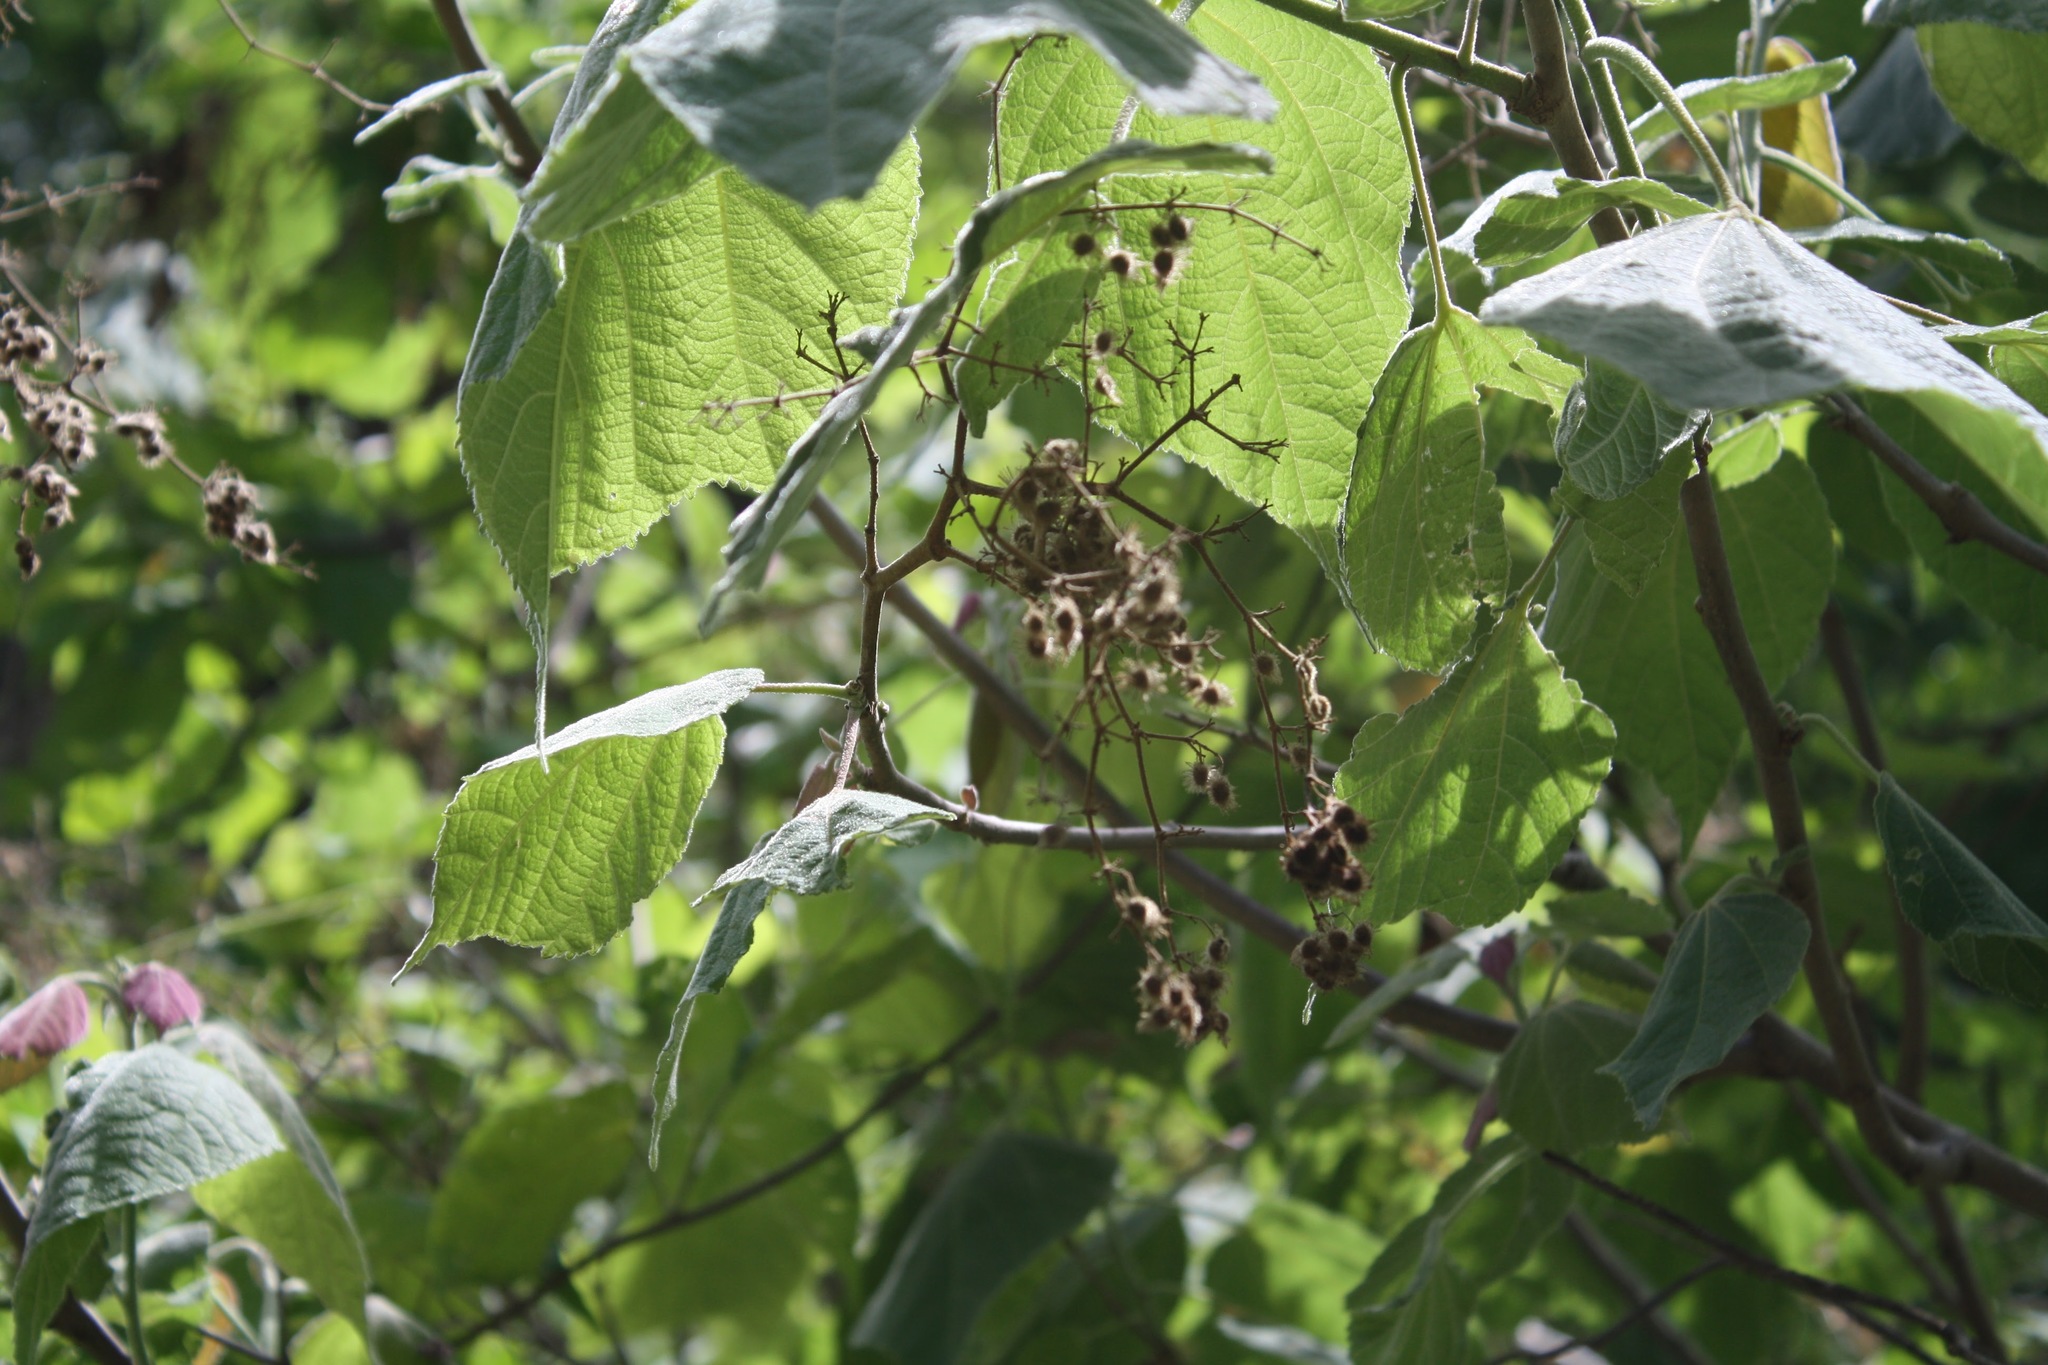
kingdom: Plantae
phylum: Tracheophyta
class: Magnoliopsida
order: Malvales
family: Malvaceae
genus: Heliocarpus
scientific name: Heliocarpus terebinthinaceus
